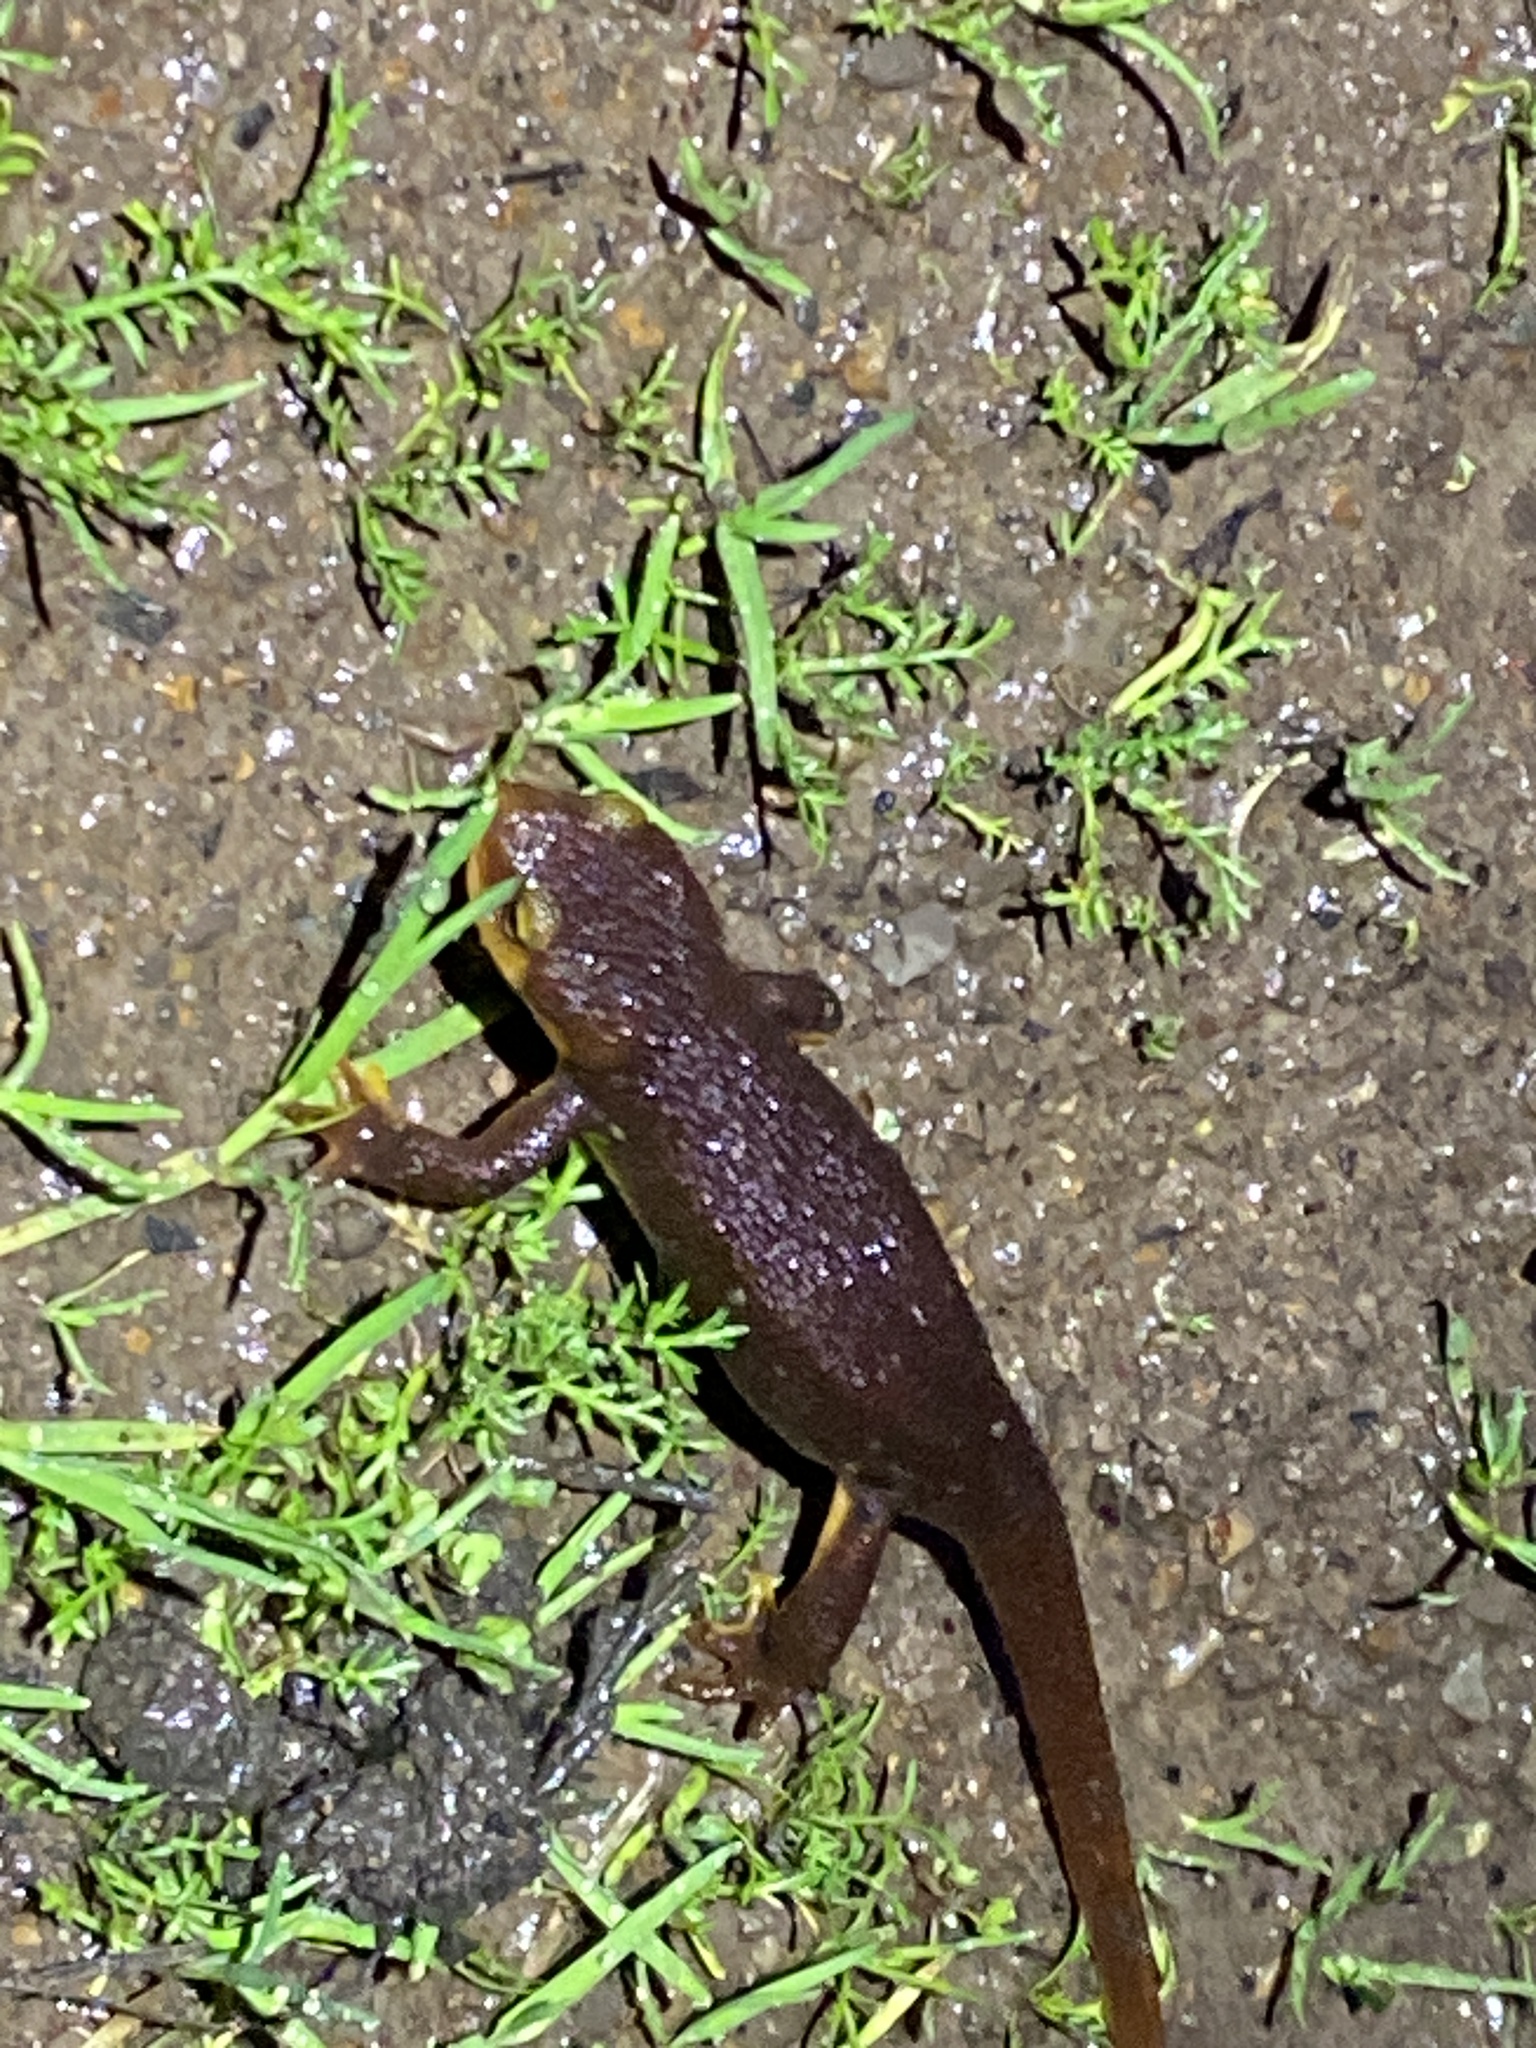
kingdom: Animalia
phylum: Chordata
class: Amphibia
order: Caudata
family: Salamandridae
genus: Taricha
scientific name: Taricha torosa
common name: California newt
